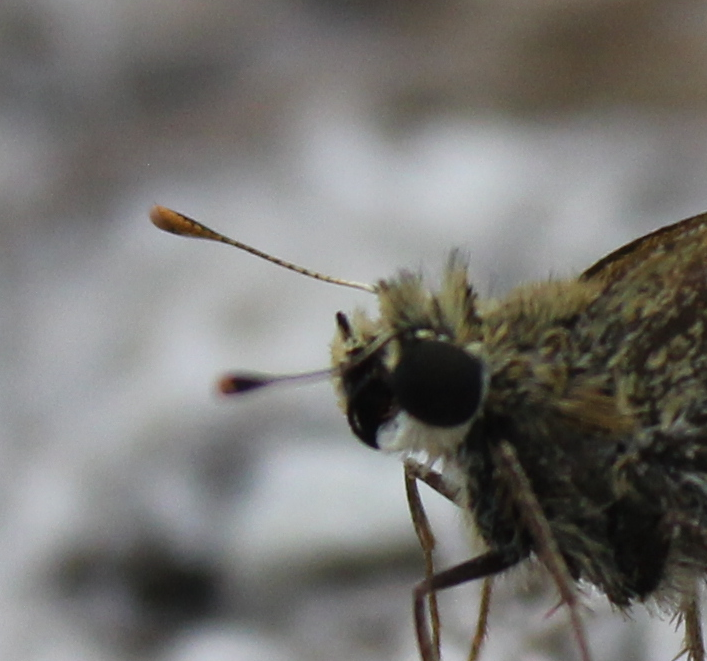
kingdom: Animalia
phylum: Arthropoda
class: Insecta
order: Lepidoptera
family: Hesperiidae
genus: Polites
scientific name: Polites vibex
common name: Whirlabout
